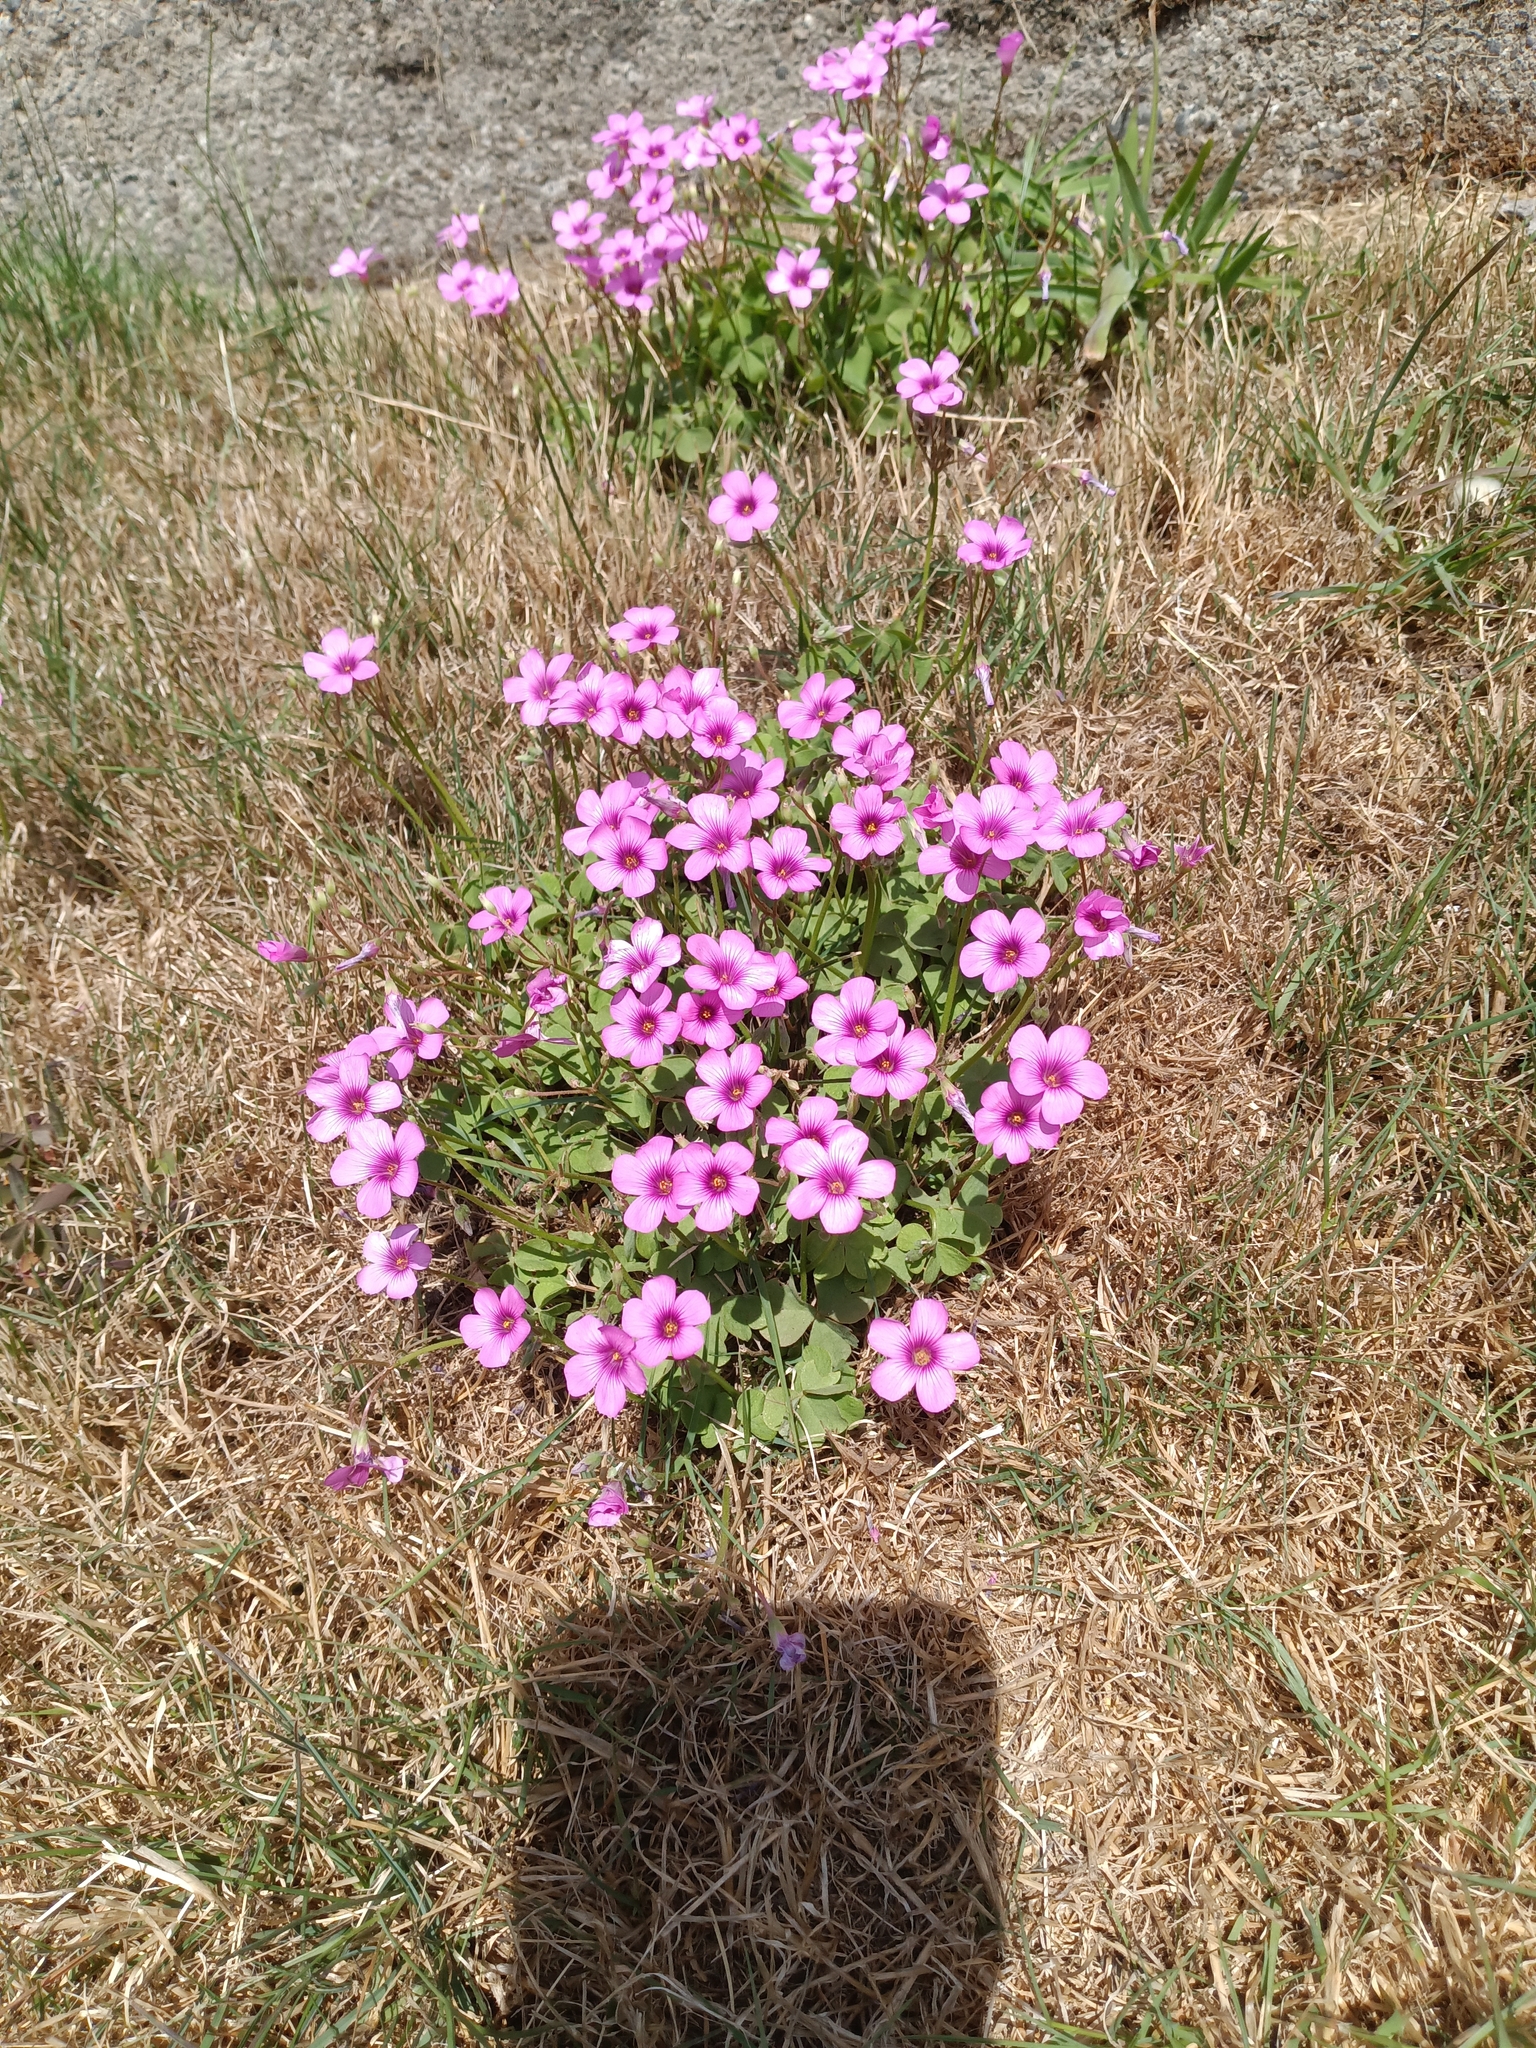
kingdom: Plantae
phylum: Tracheophyta
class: Magnoliopsida
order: Oxalidales
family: Oxalidaceae
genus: Oxalis
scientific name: Oxalis articulata
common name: Pink-sorrel
